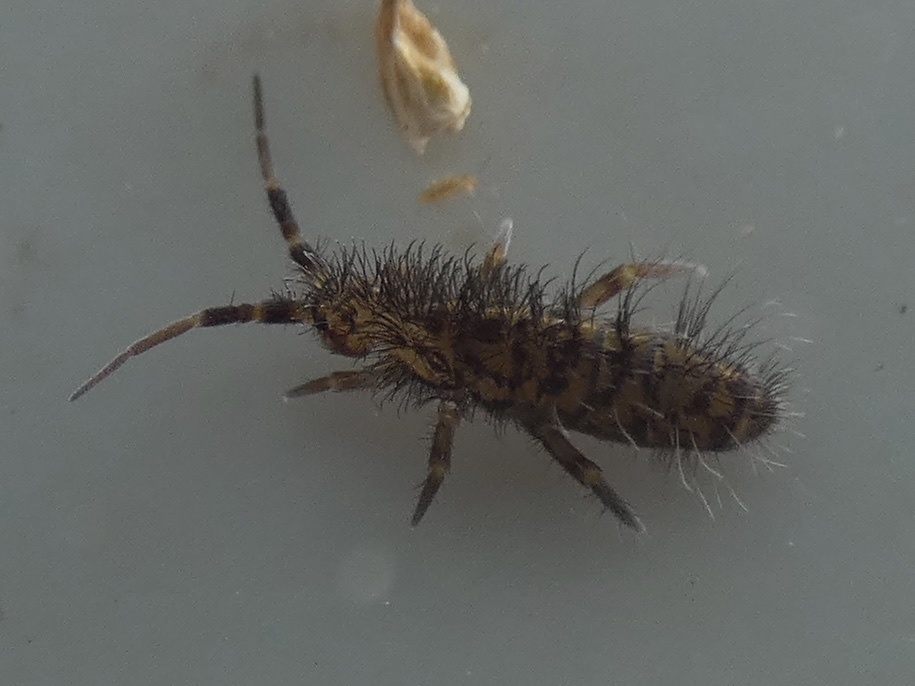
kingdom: Animalia
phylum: Arthropoda
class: Collembola
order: Entomobryomorpha
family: Orchesellidae
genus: Orchesella
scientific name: Orchesella villosa
